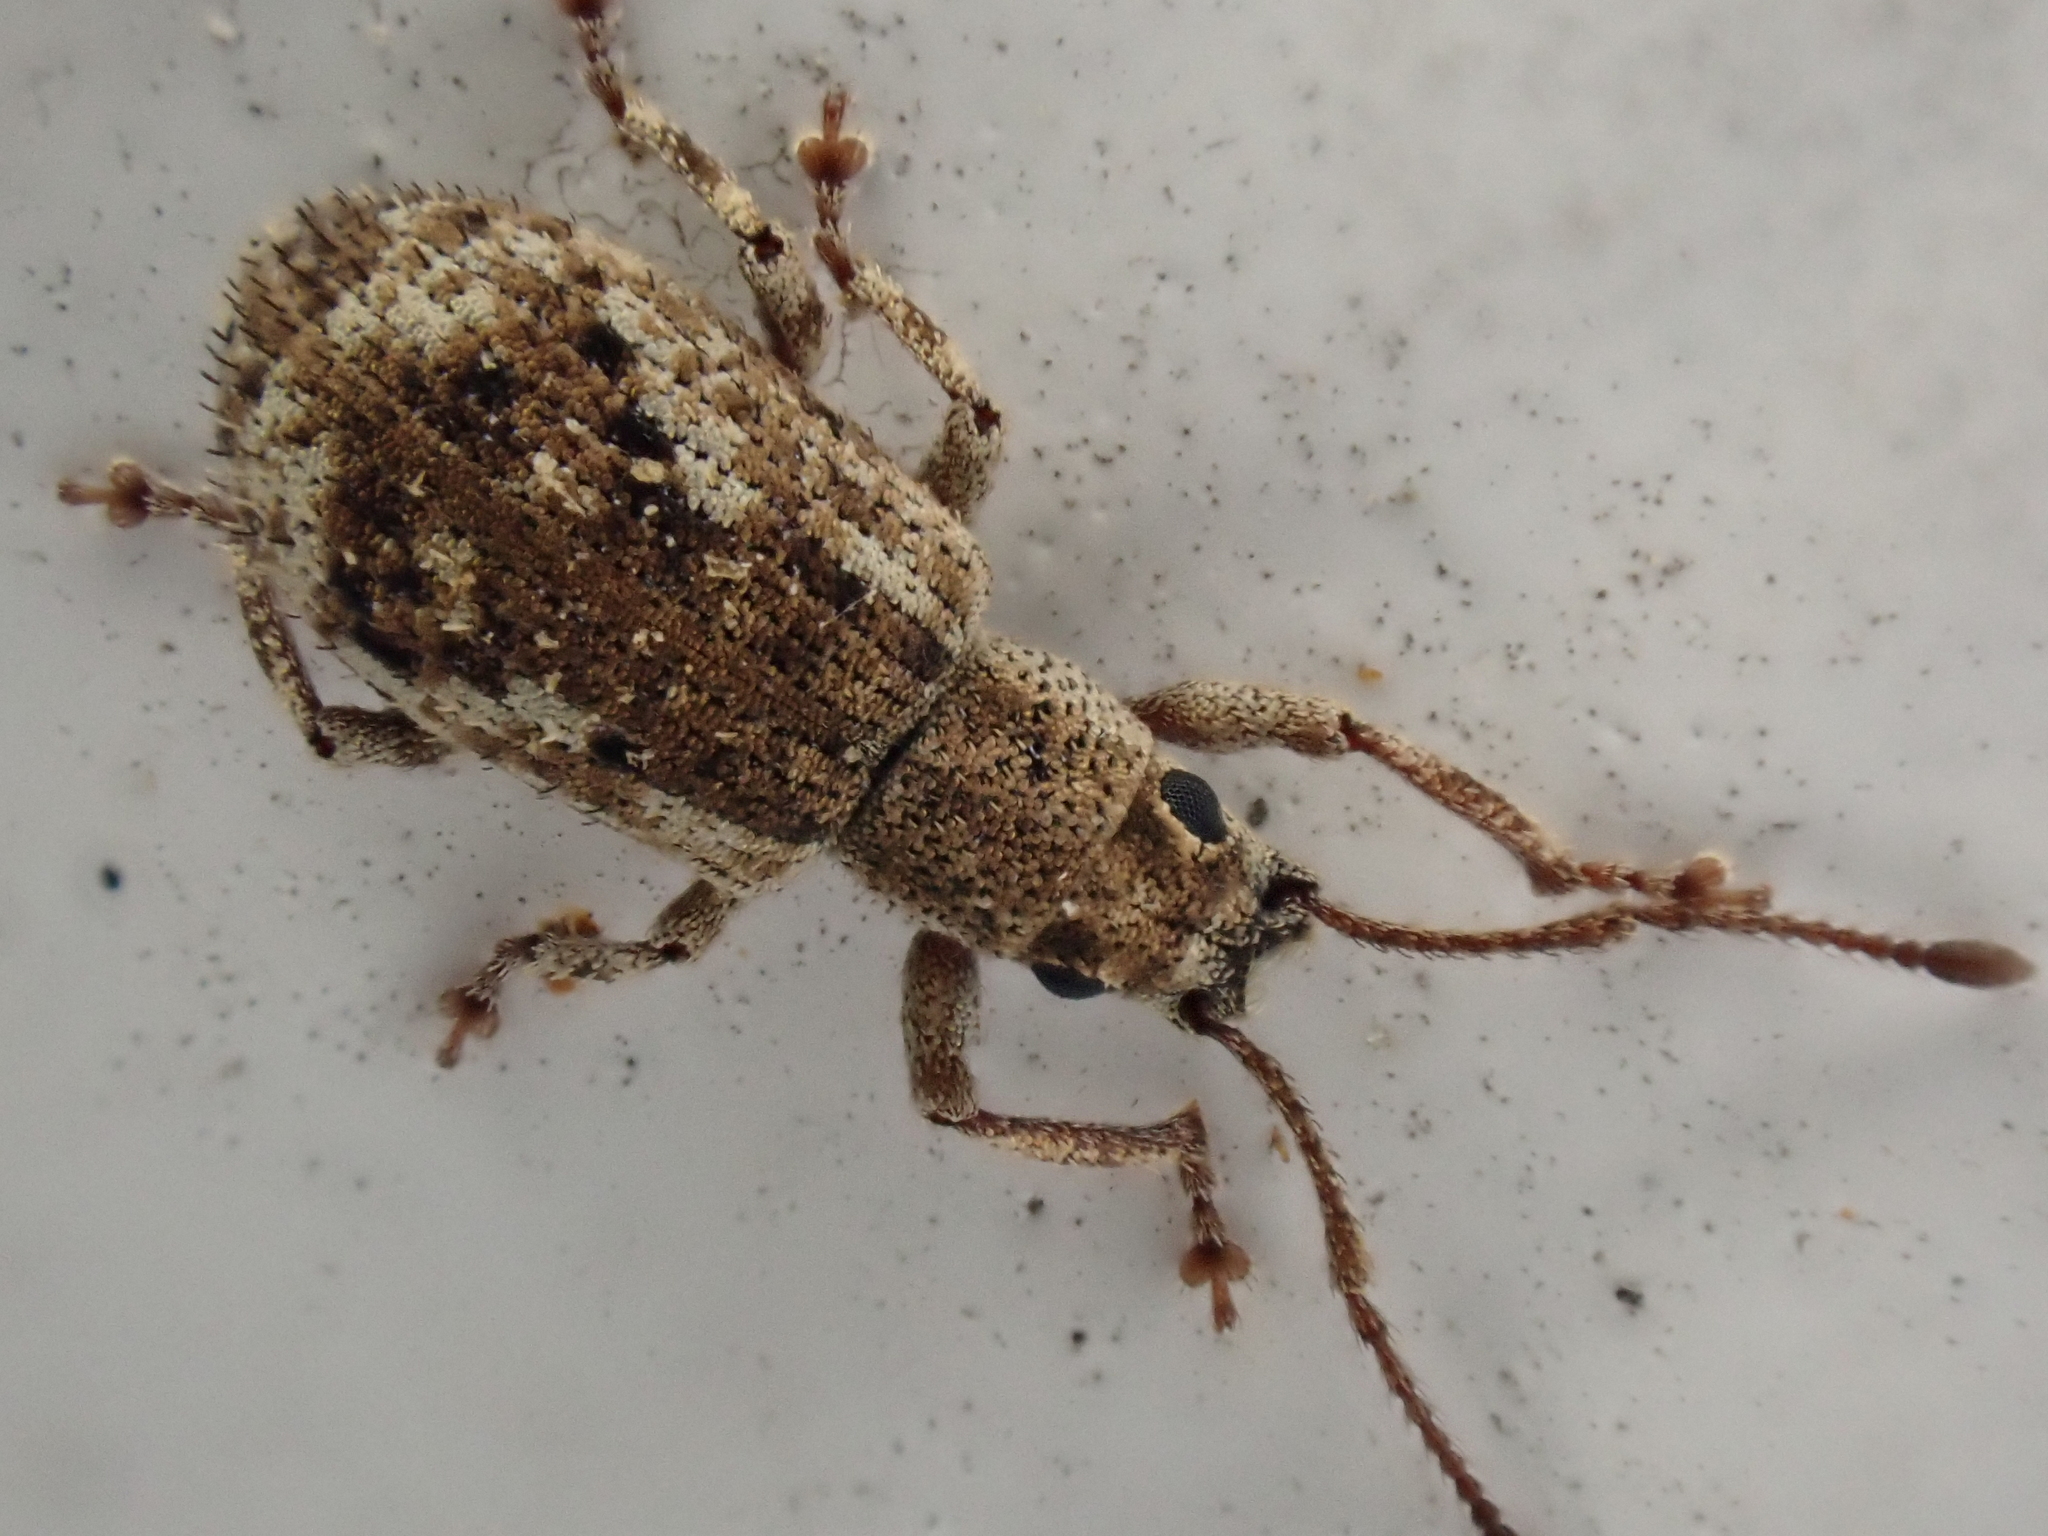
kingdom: Animalia
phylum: Arthropoda
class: Insecta
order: Coleoptera
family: Curculionidae
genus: Pseudoedophrys
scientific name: Pseudoedophrys hilleri
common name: Weevil
